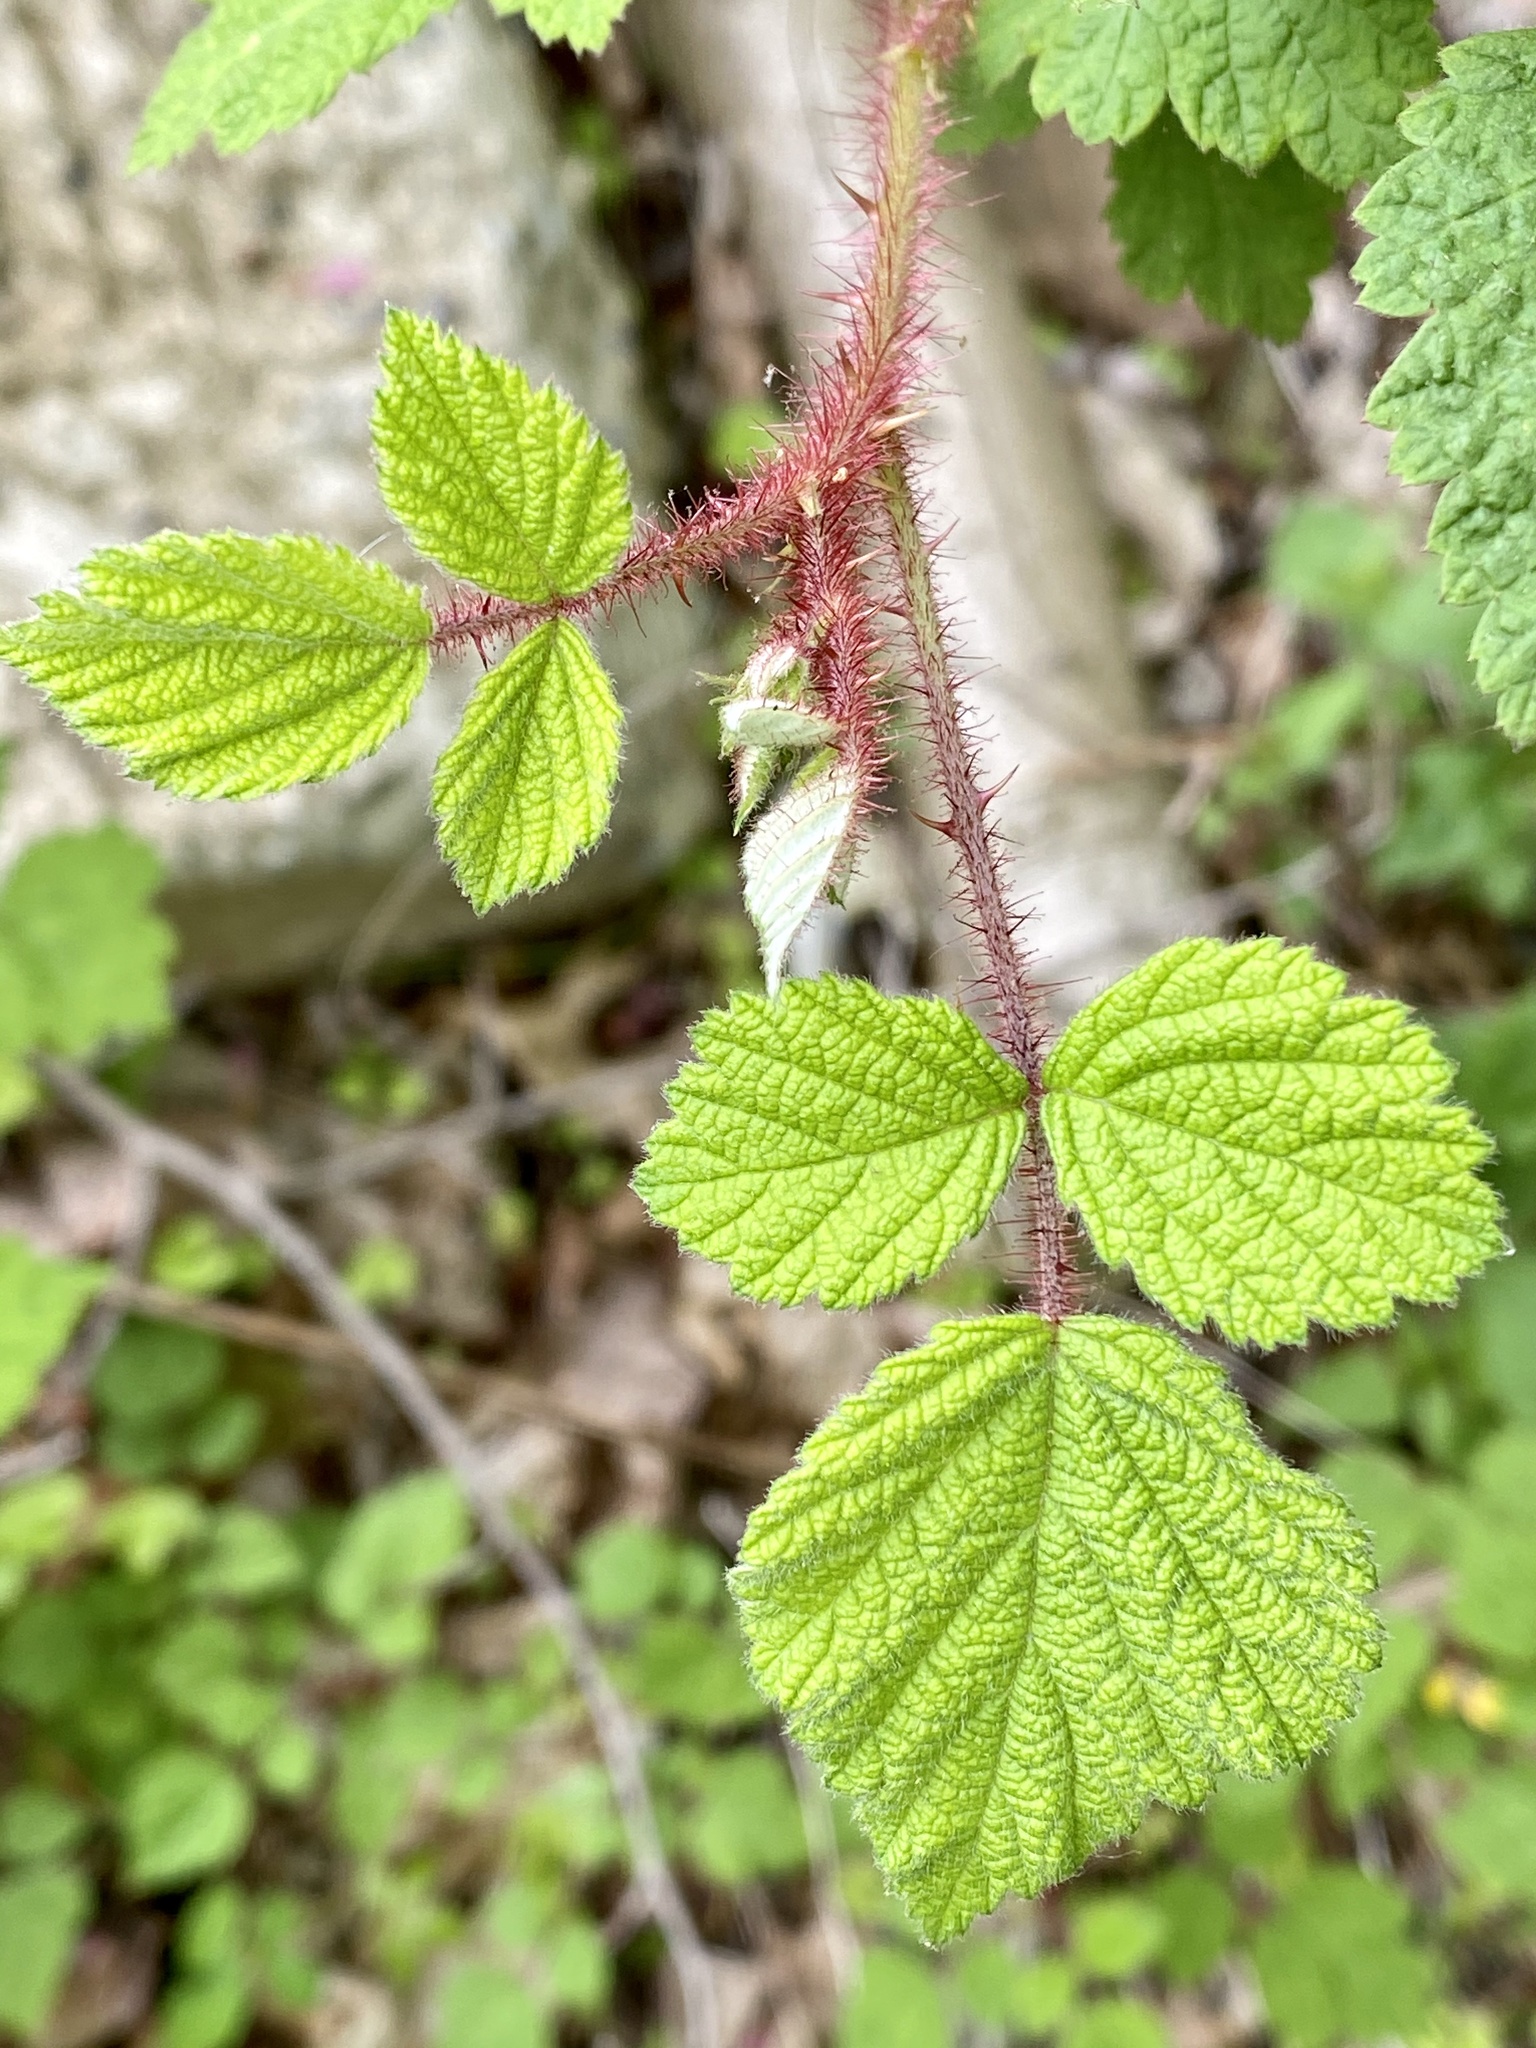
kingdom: Plantae
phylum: Tracheophyta
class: Magnoliopsida
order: Rosales
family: Rosaceae
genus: Rubus
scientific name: Rubus phoenicolasius
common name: Japanese wineberry
